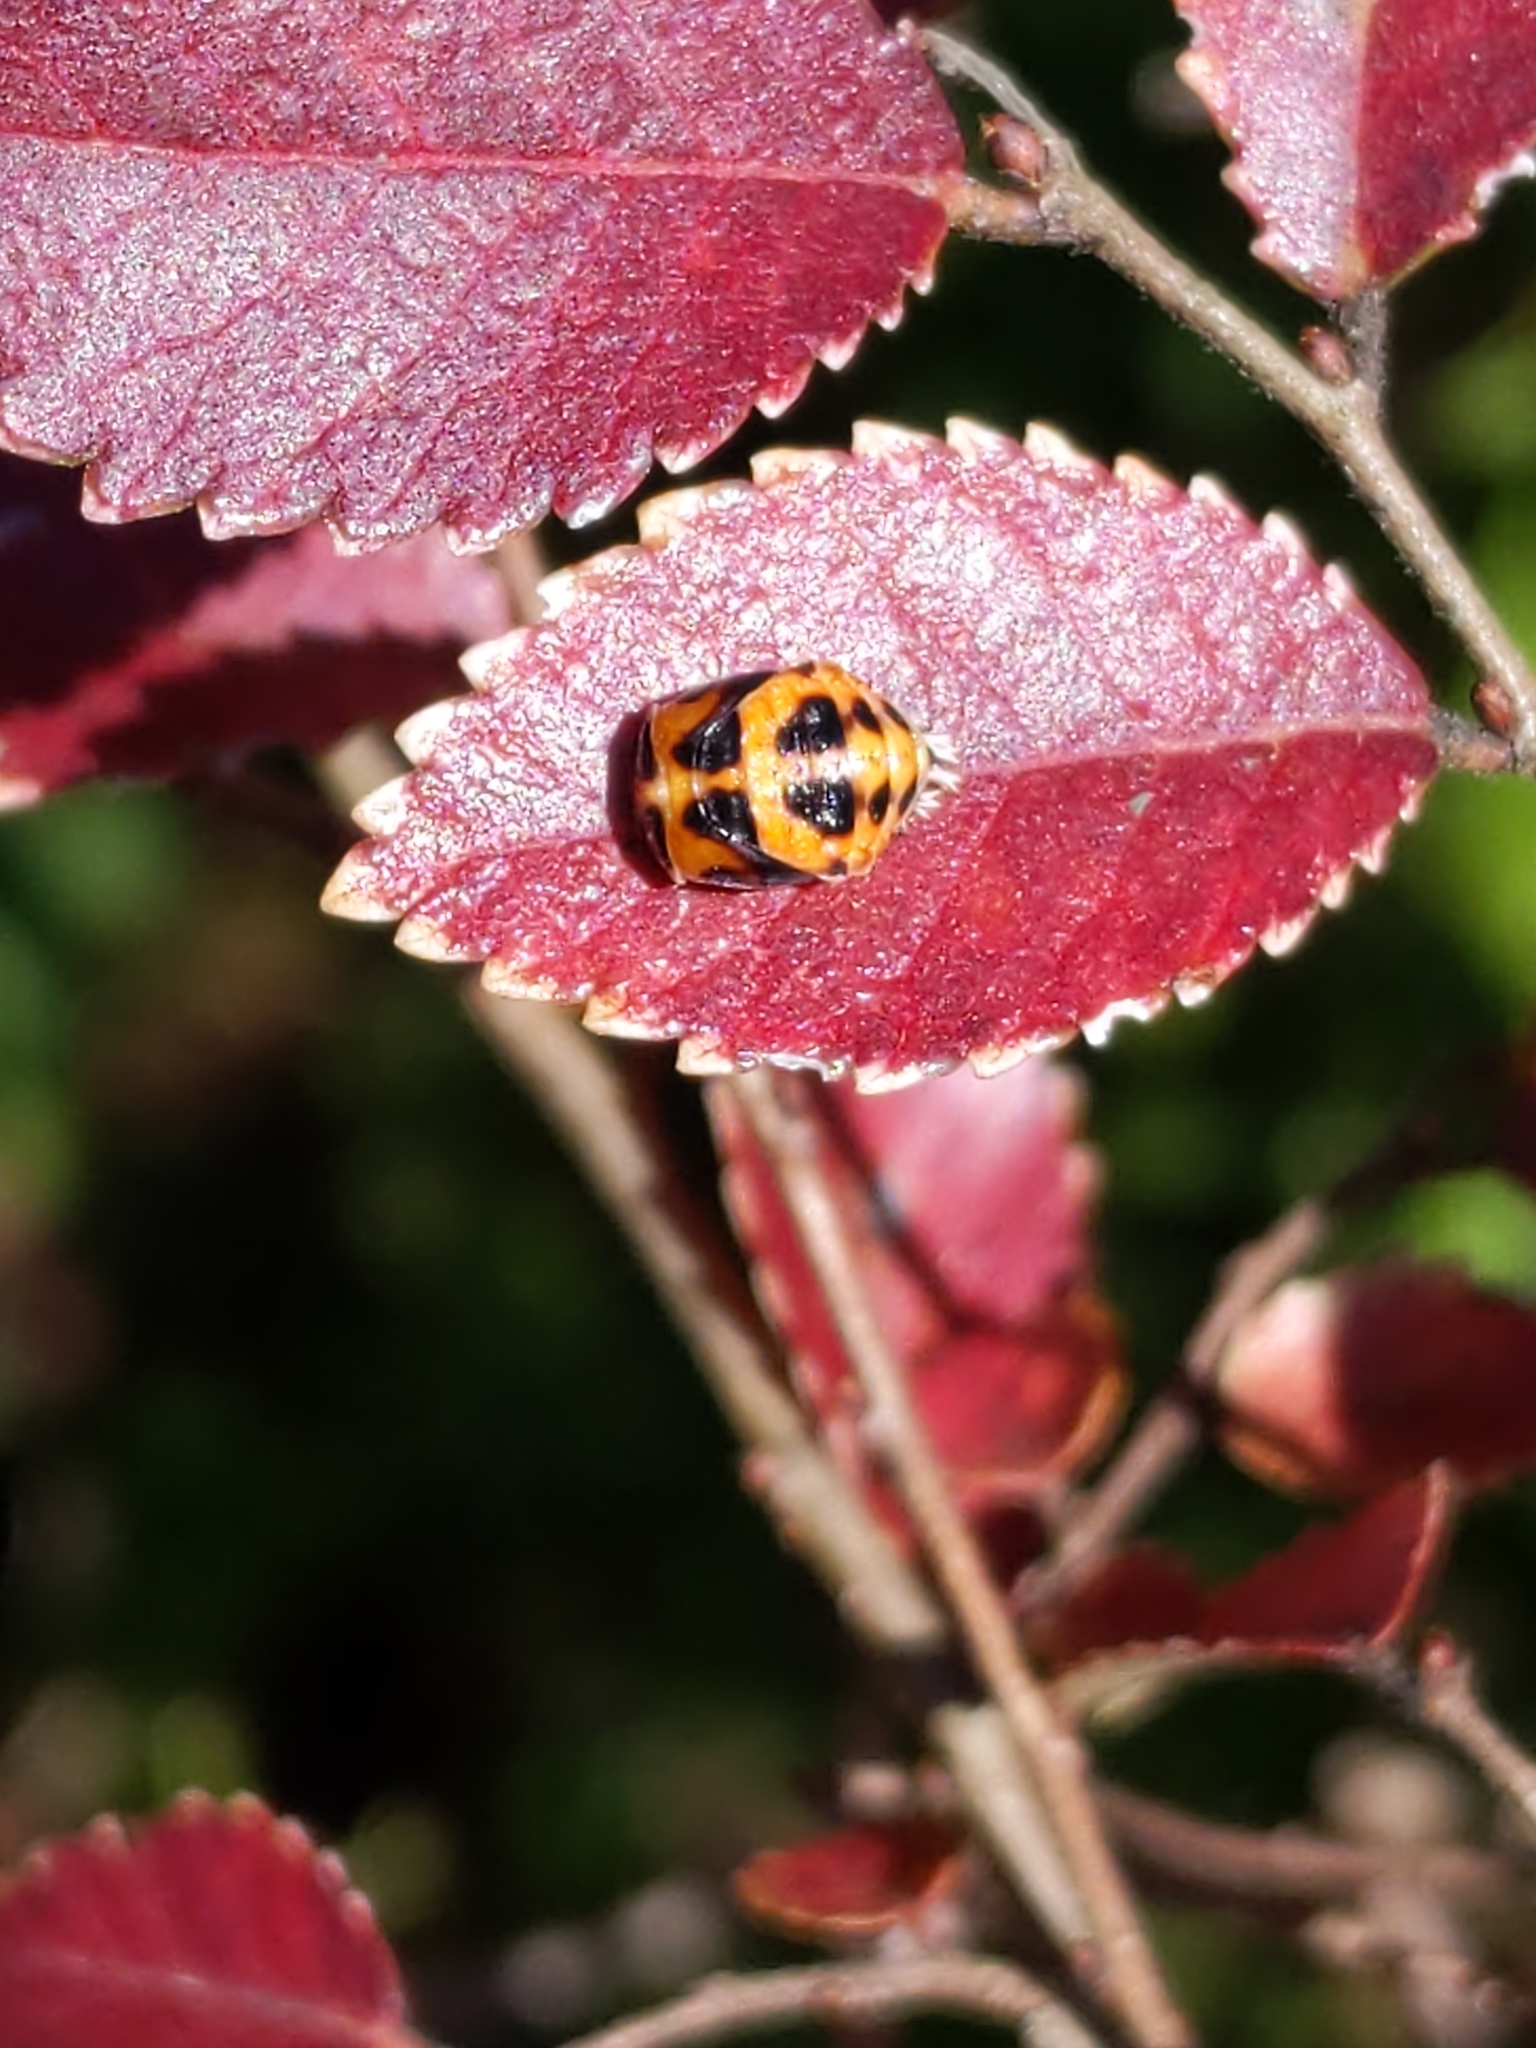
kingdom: Animalia
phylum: Arthropoda
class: Insecta
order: Coleoptera
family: Coccinellidae
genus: Harmonia
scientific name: Harmonia axyridis
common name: Harlequin ladybird
